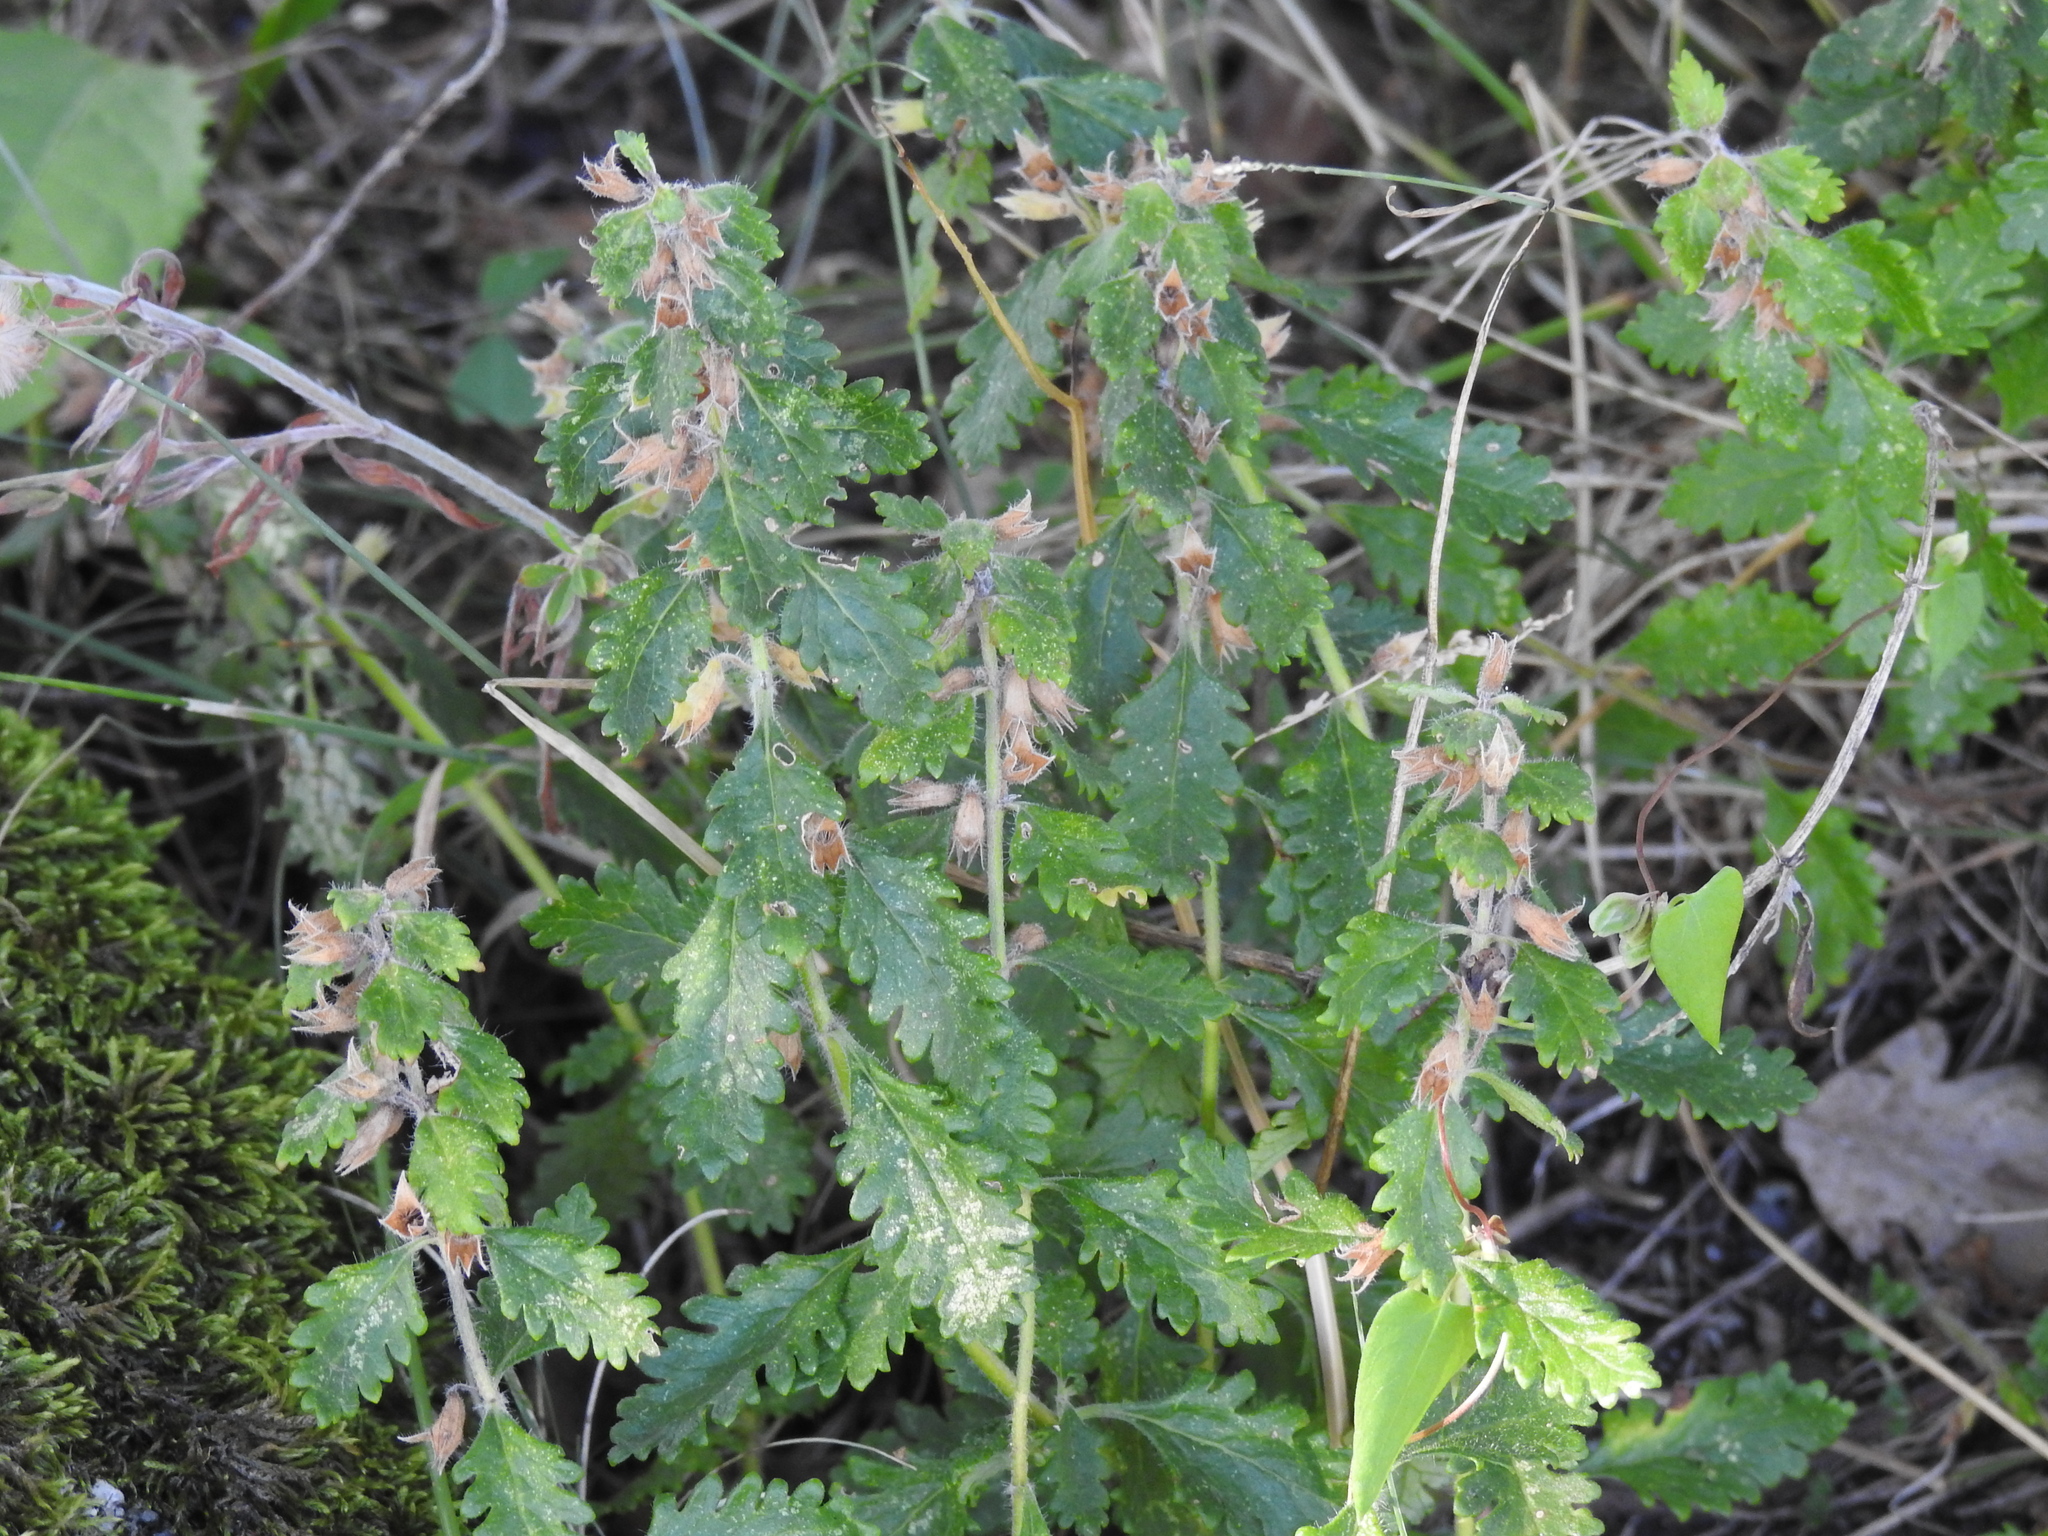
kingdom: Plantae
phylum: Tracheophyta
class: Magnoliopsida
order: Lamiales
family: Lamiaceae
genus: Teucrium
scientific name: Teucrium chamaedrys
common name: Wall germander
